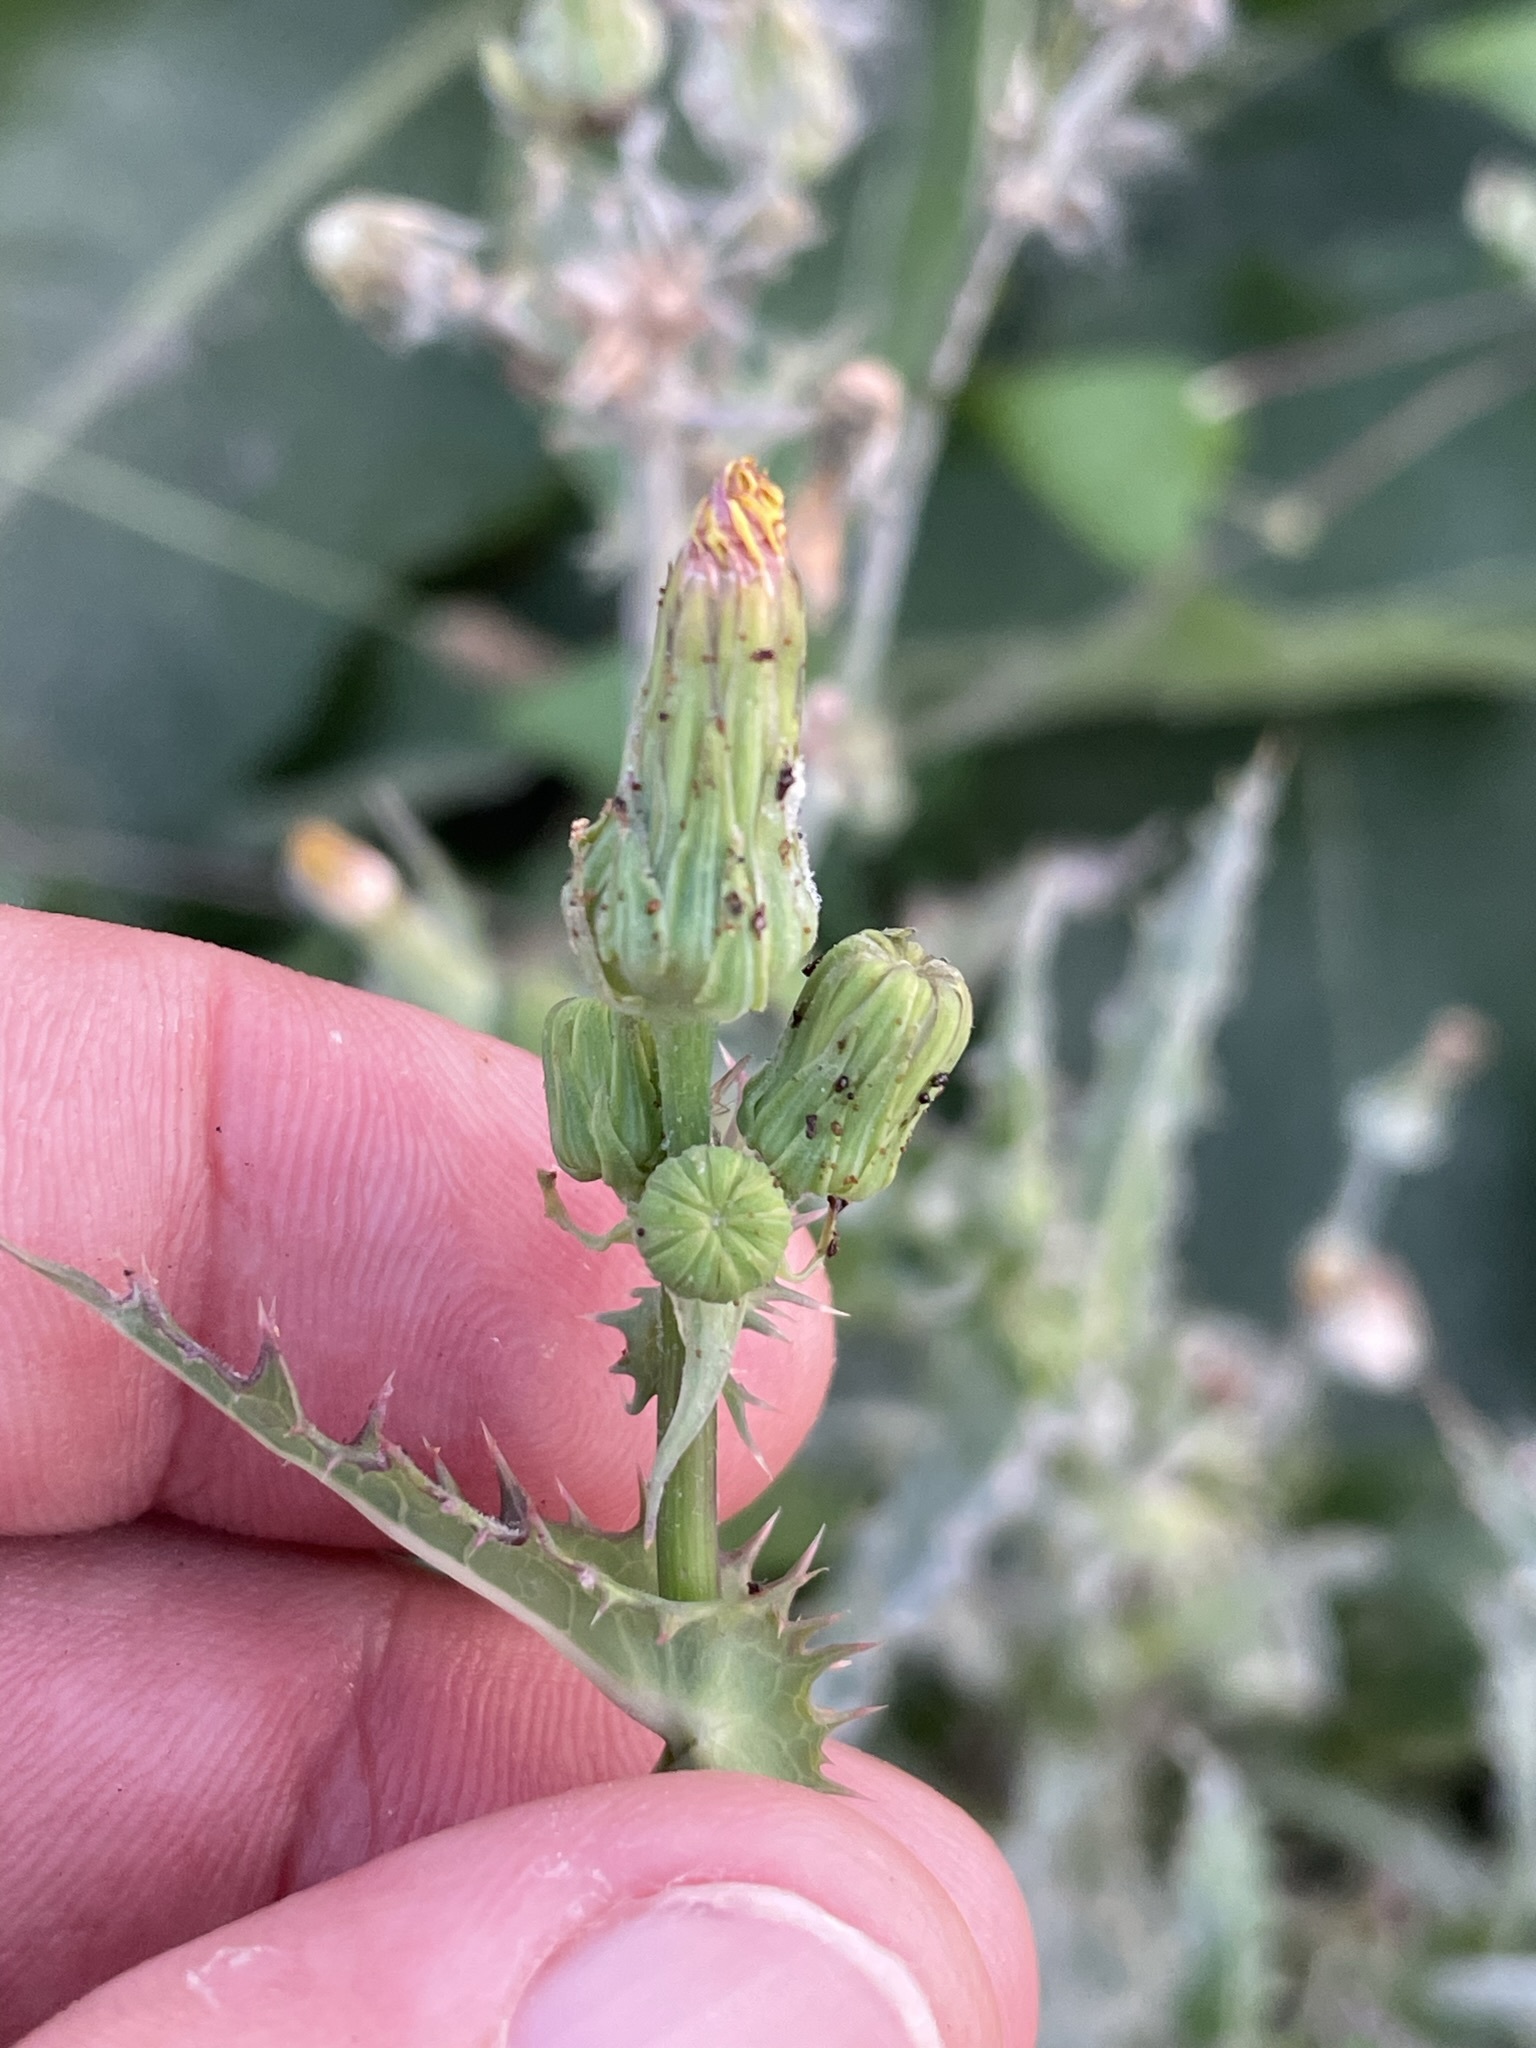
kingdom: Plantae
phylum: Tracheophyta
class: Magnoliopsida
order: Asterales
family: Asteraceae
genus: Sonchus
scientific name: Sonchus asper
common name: Prickly sow-thistle
